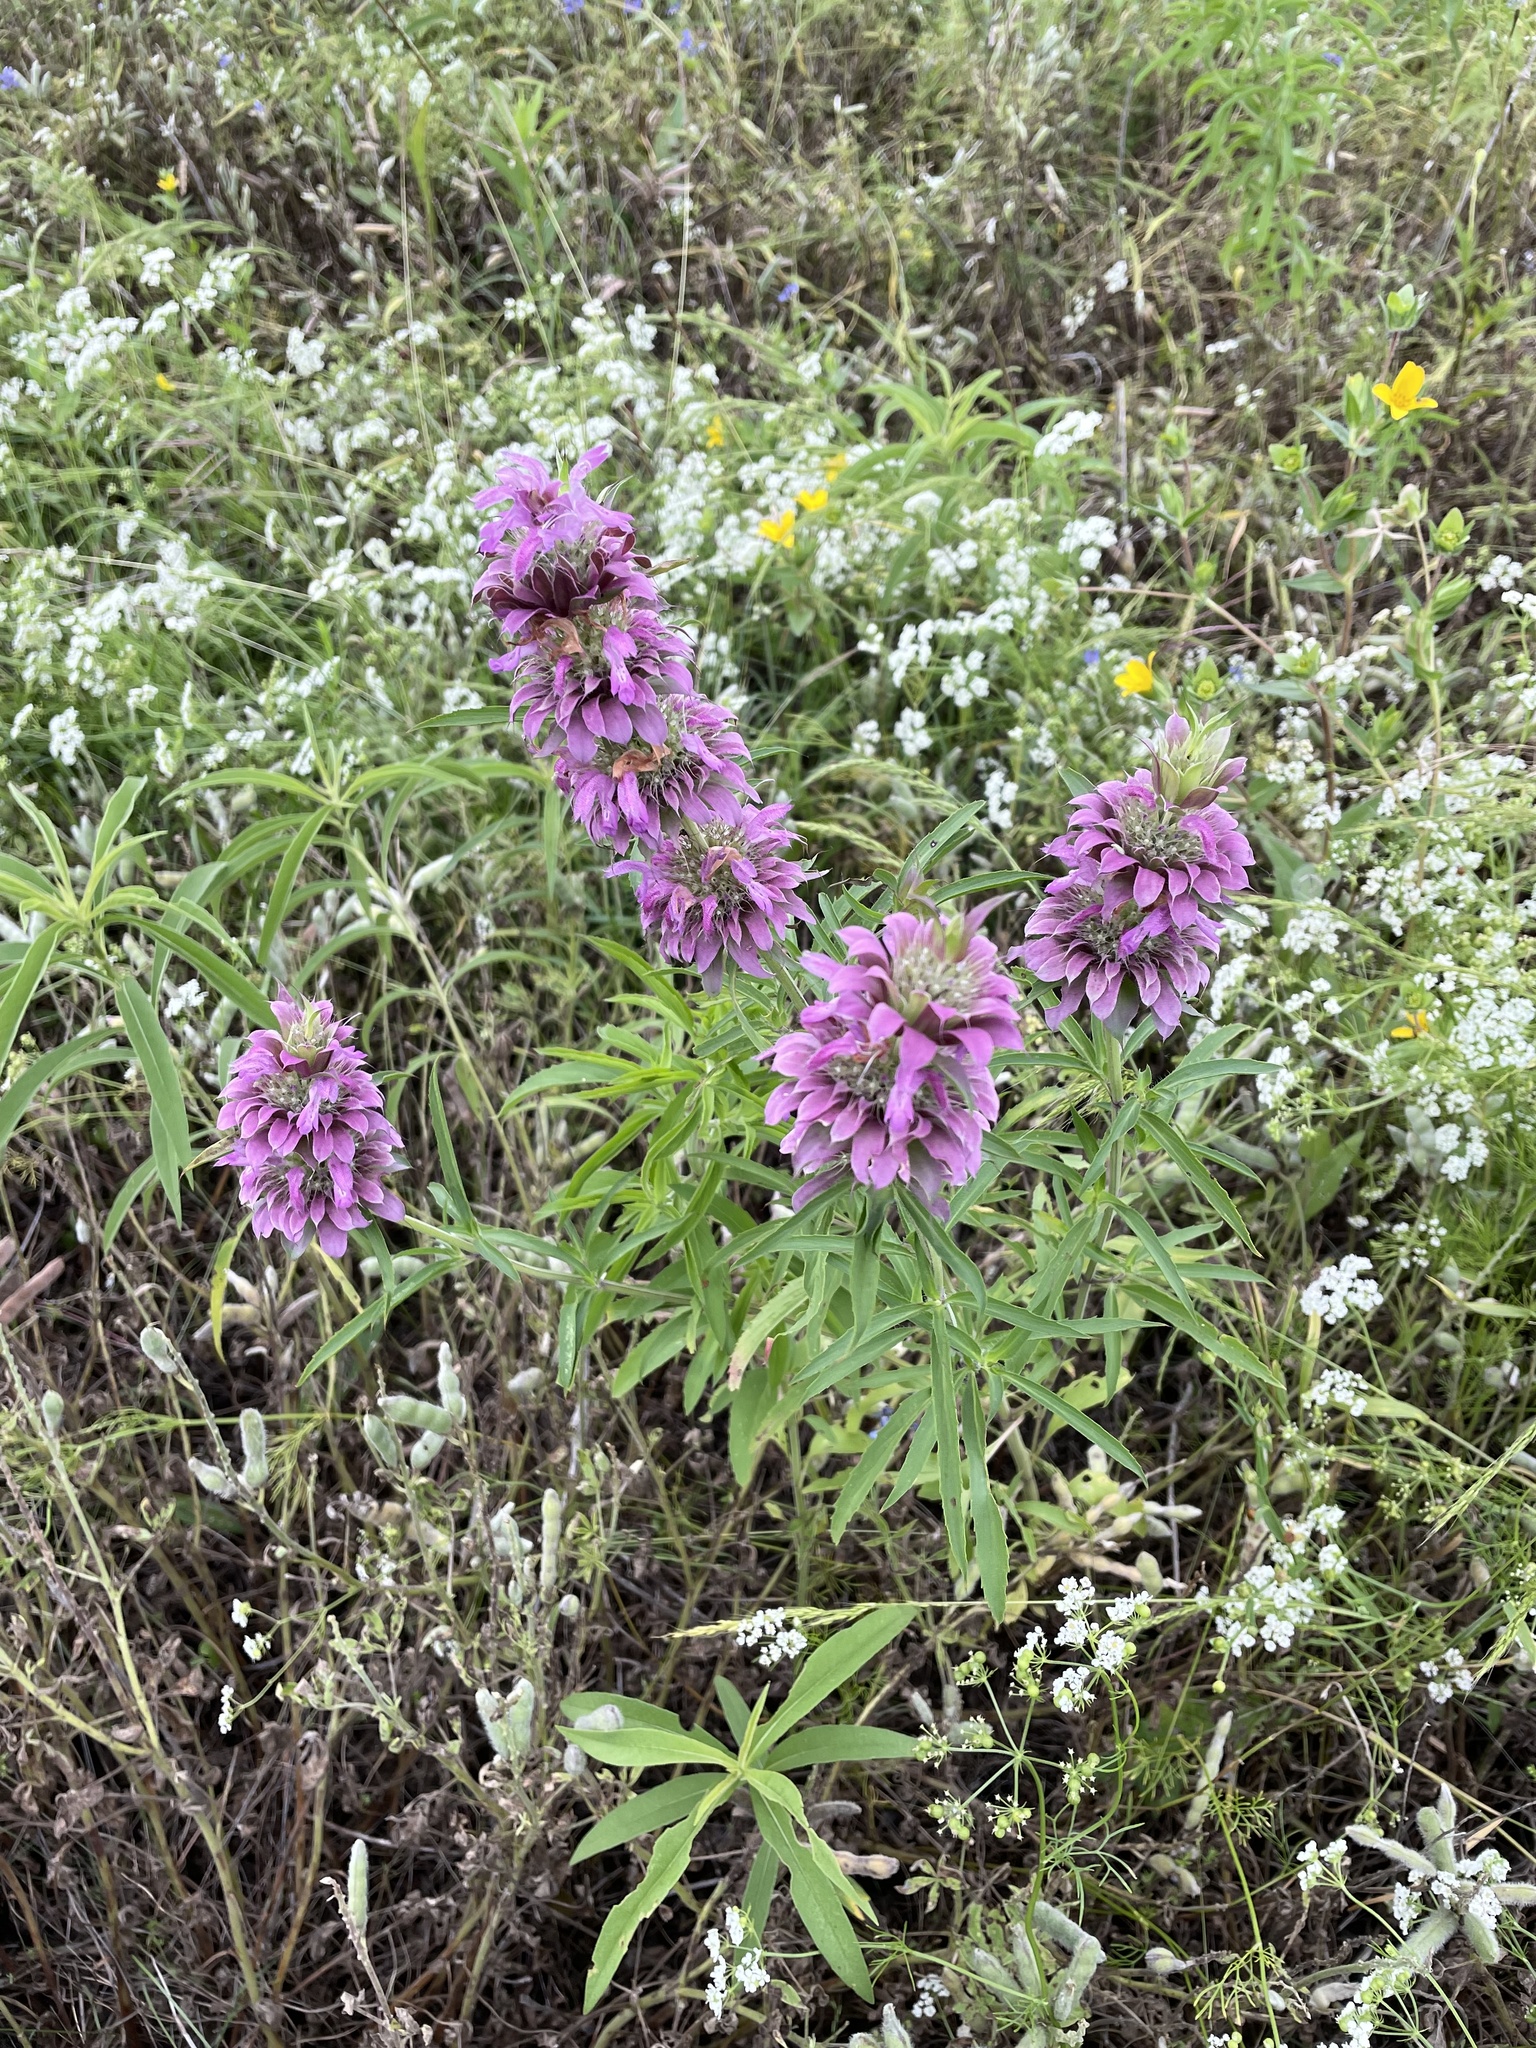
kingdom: Plantae
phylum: Tracheophyta
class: Magnoliopsida
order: Lamiales
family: Lamiaceae
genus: Monarda
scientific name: Monarda citriodora
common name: Lemon beebalm
